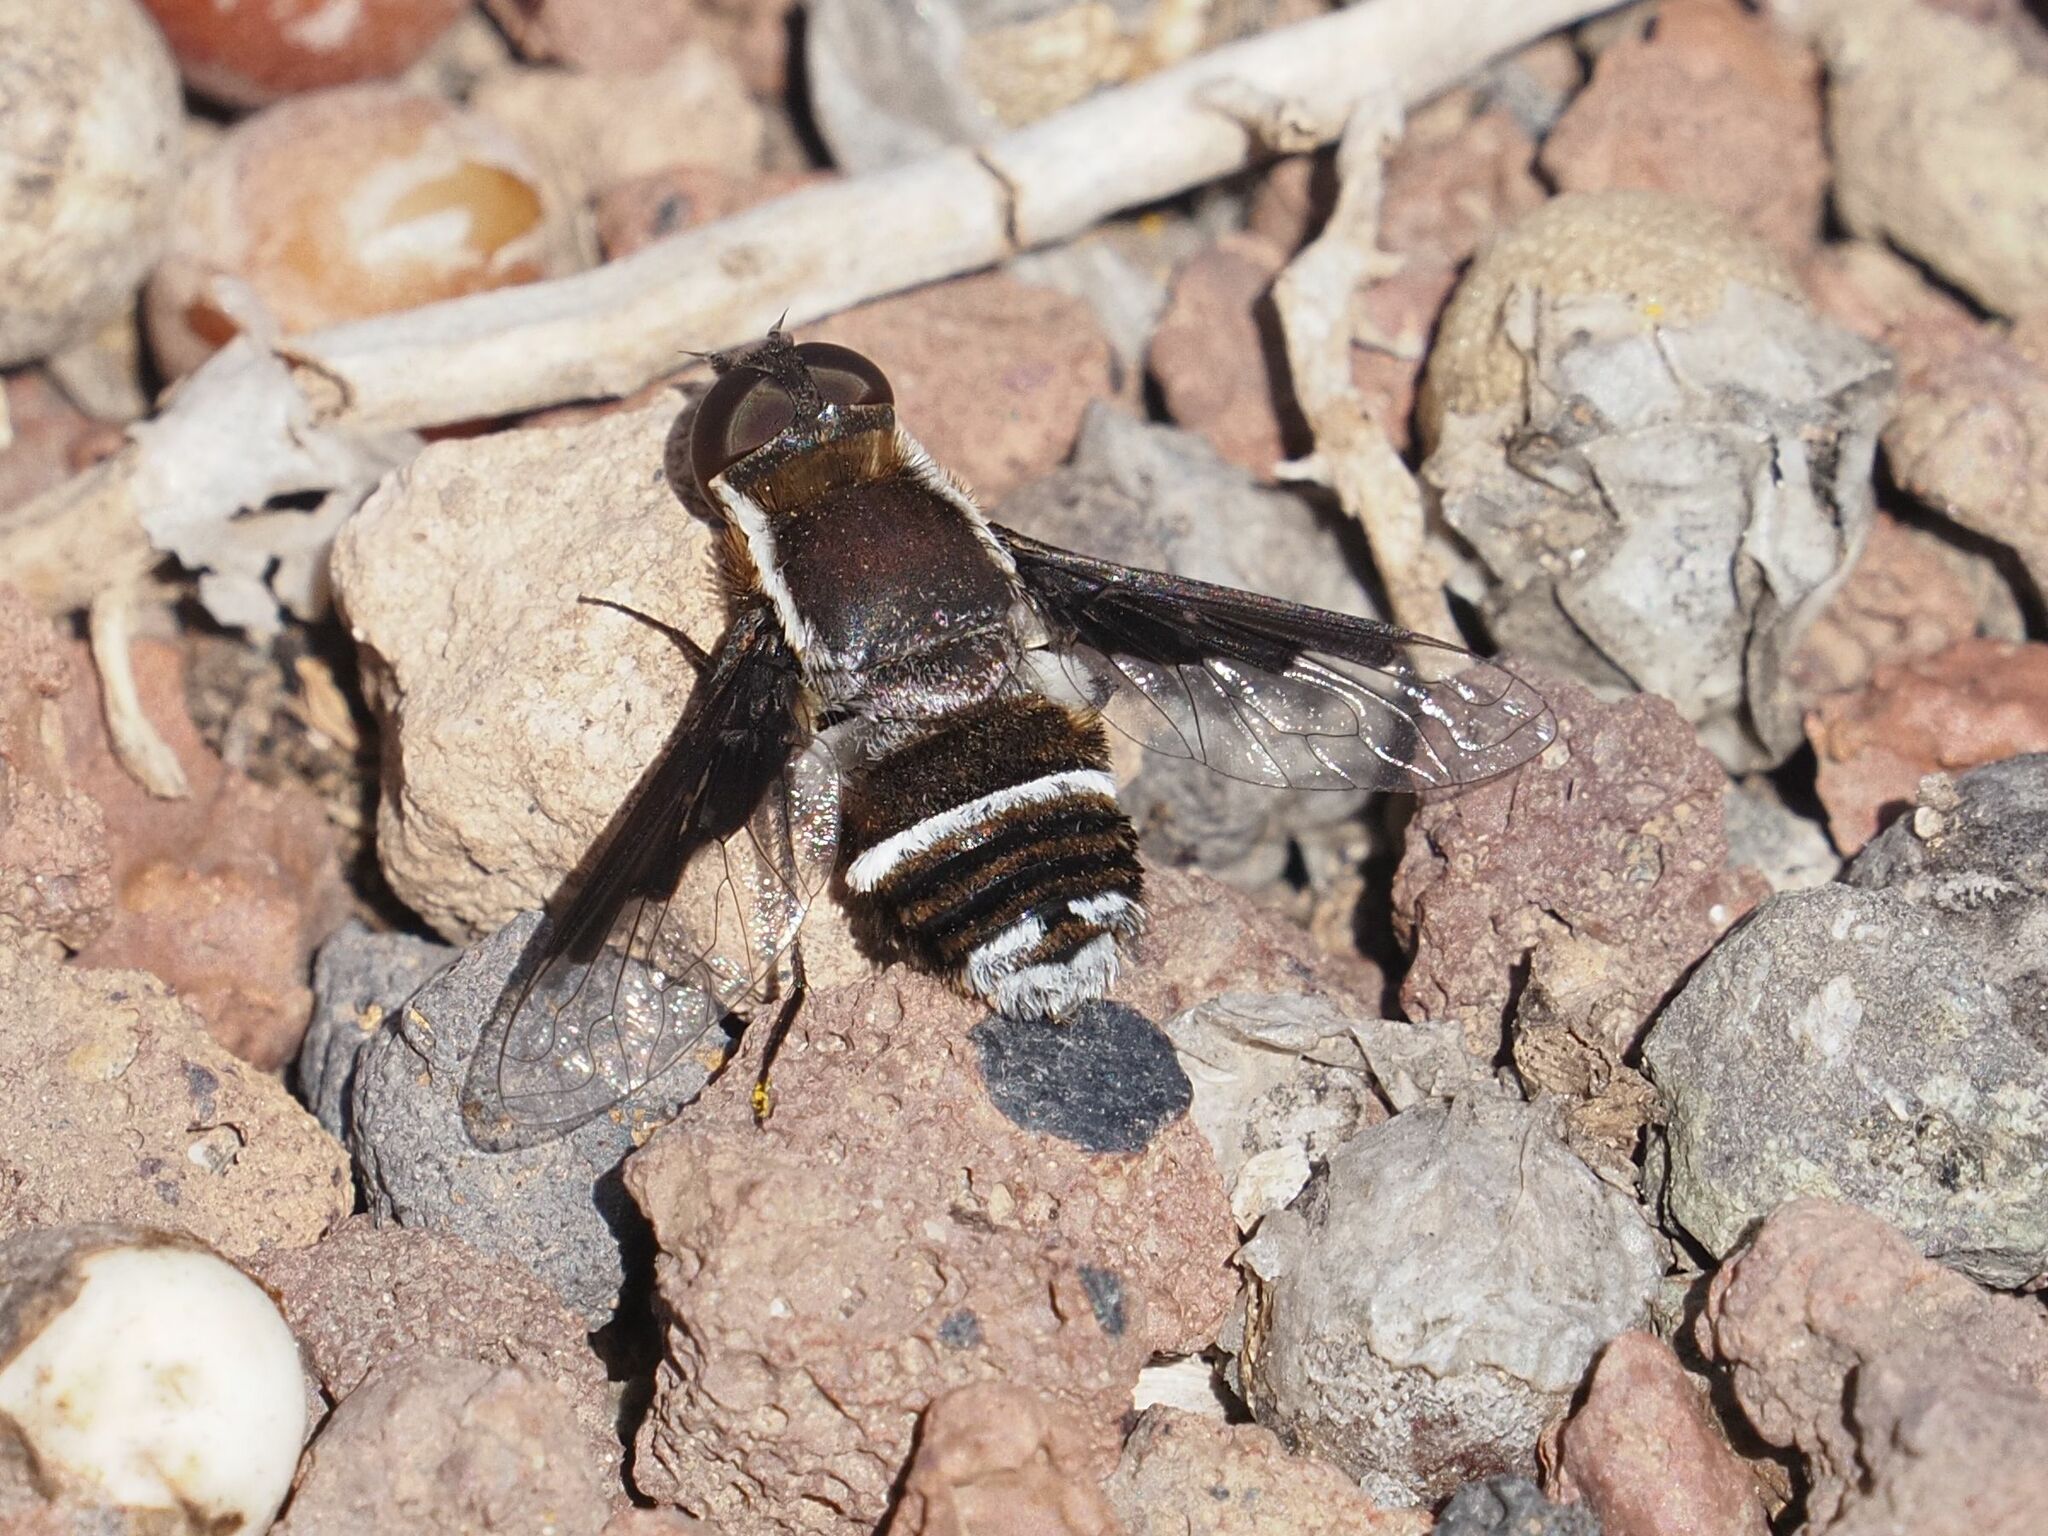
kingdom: Animalia
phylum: Arthropoda
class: Insecta
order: Diptera
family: Bombyliidae
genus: Exhyalanthrax
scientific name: Exhyalanthrax canarionae
